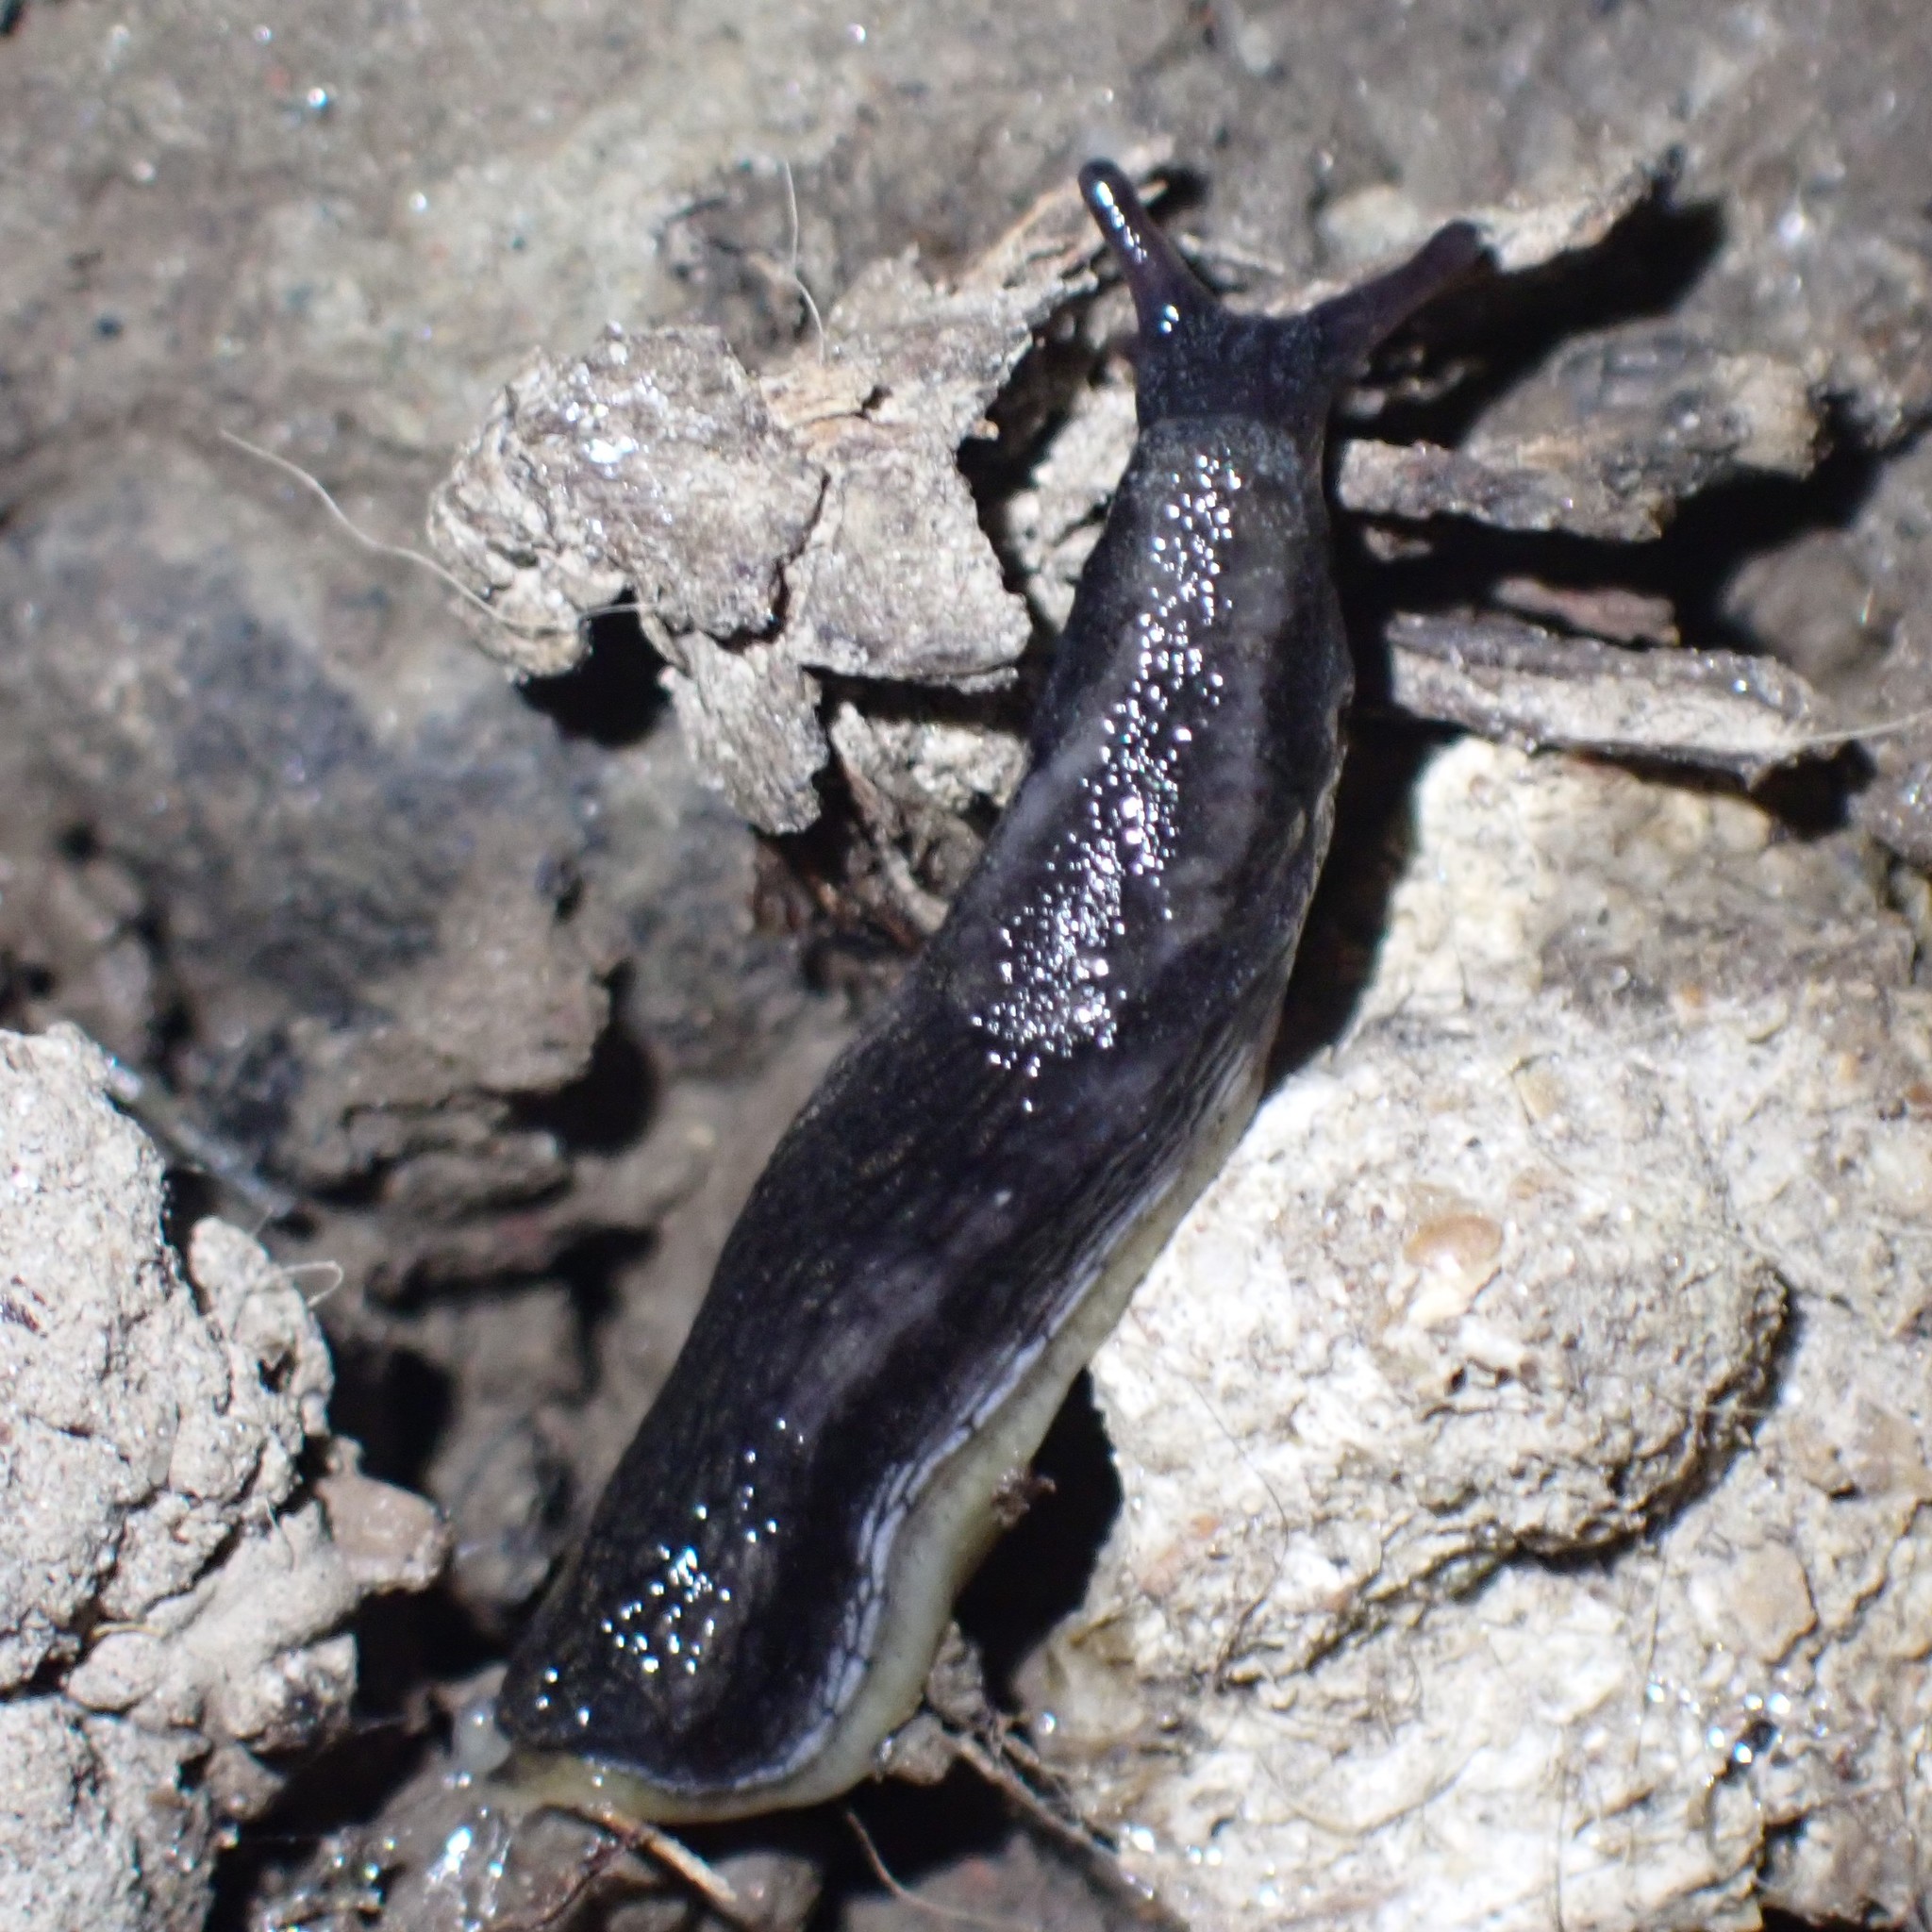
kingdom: Animalia
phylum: Mollusca
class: Gastropoda
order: Stylommatophora
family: Arionidae
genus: Arion
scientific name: Arion hortensis
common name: Garden arion
